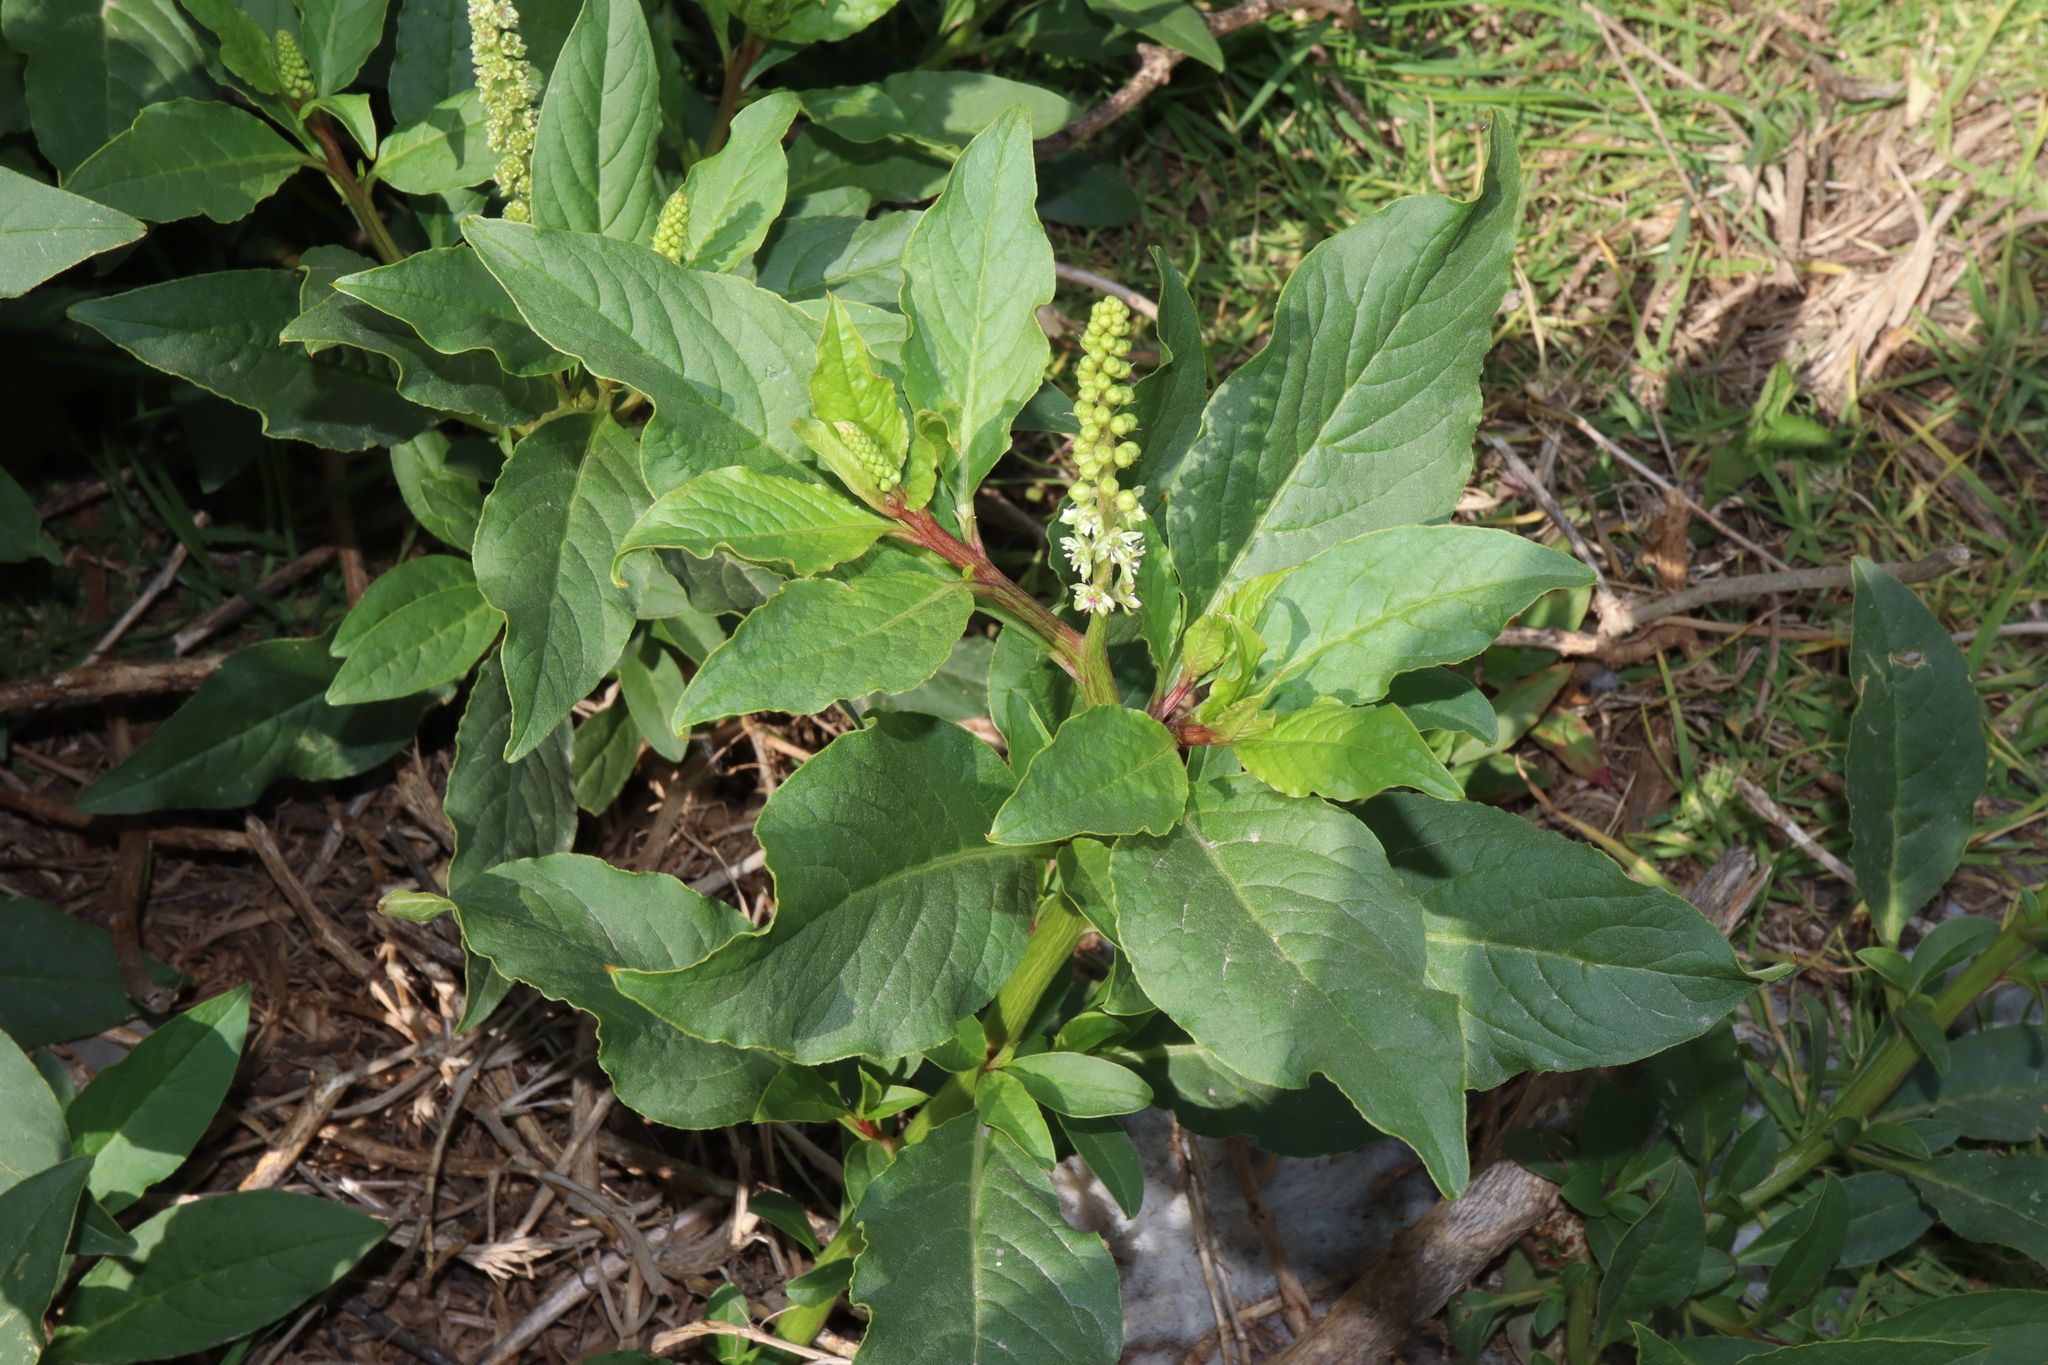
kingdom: Plantae
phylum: Tracheophyta
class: Magnoliopsida
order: Caryophyllales
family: Phytolaccaceae
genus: Phytolacca
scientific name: Phytolacca icosandra
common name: Button pokeweed
